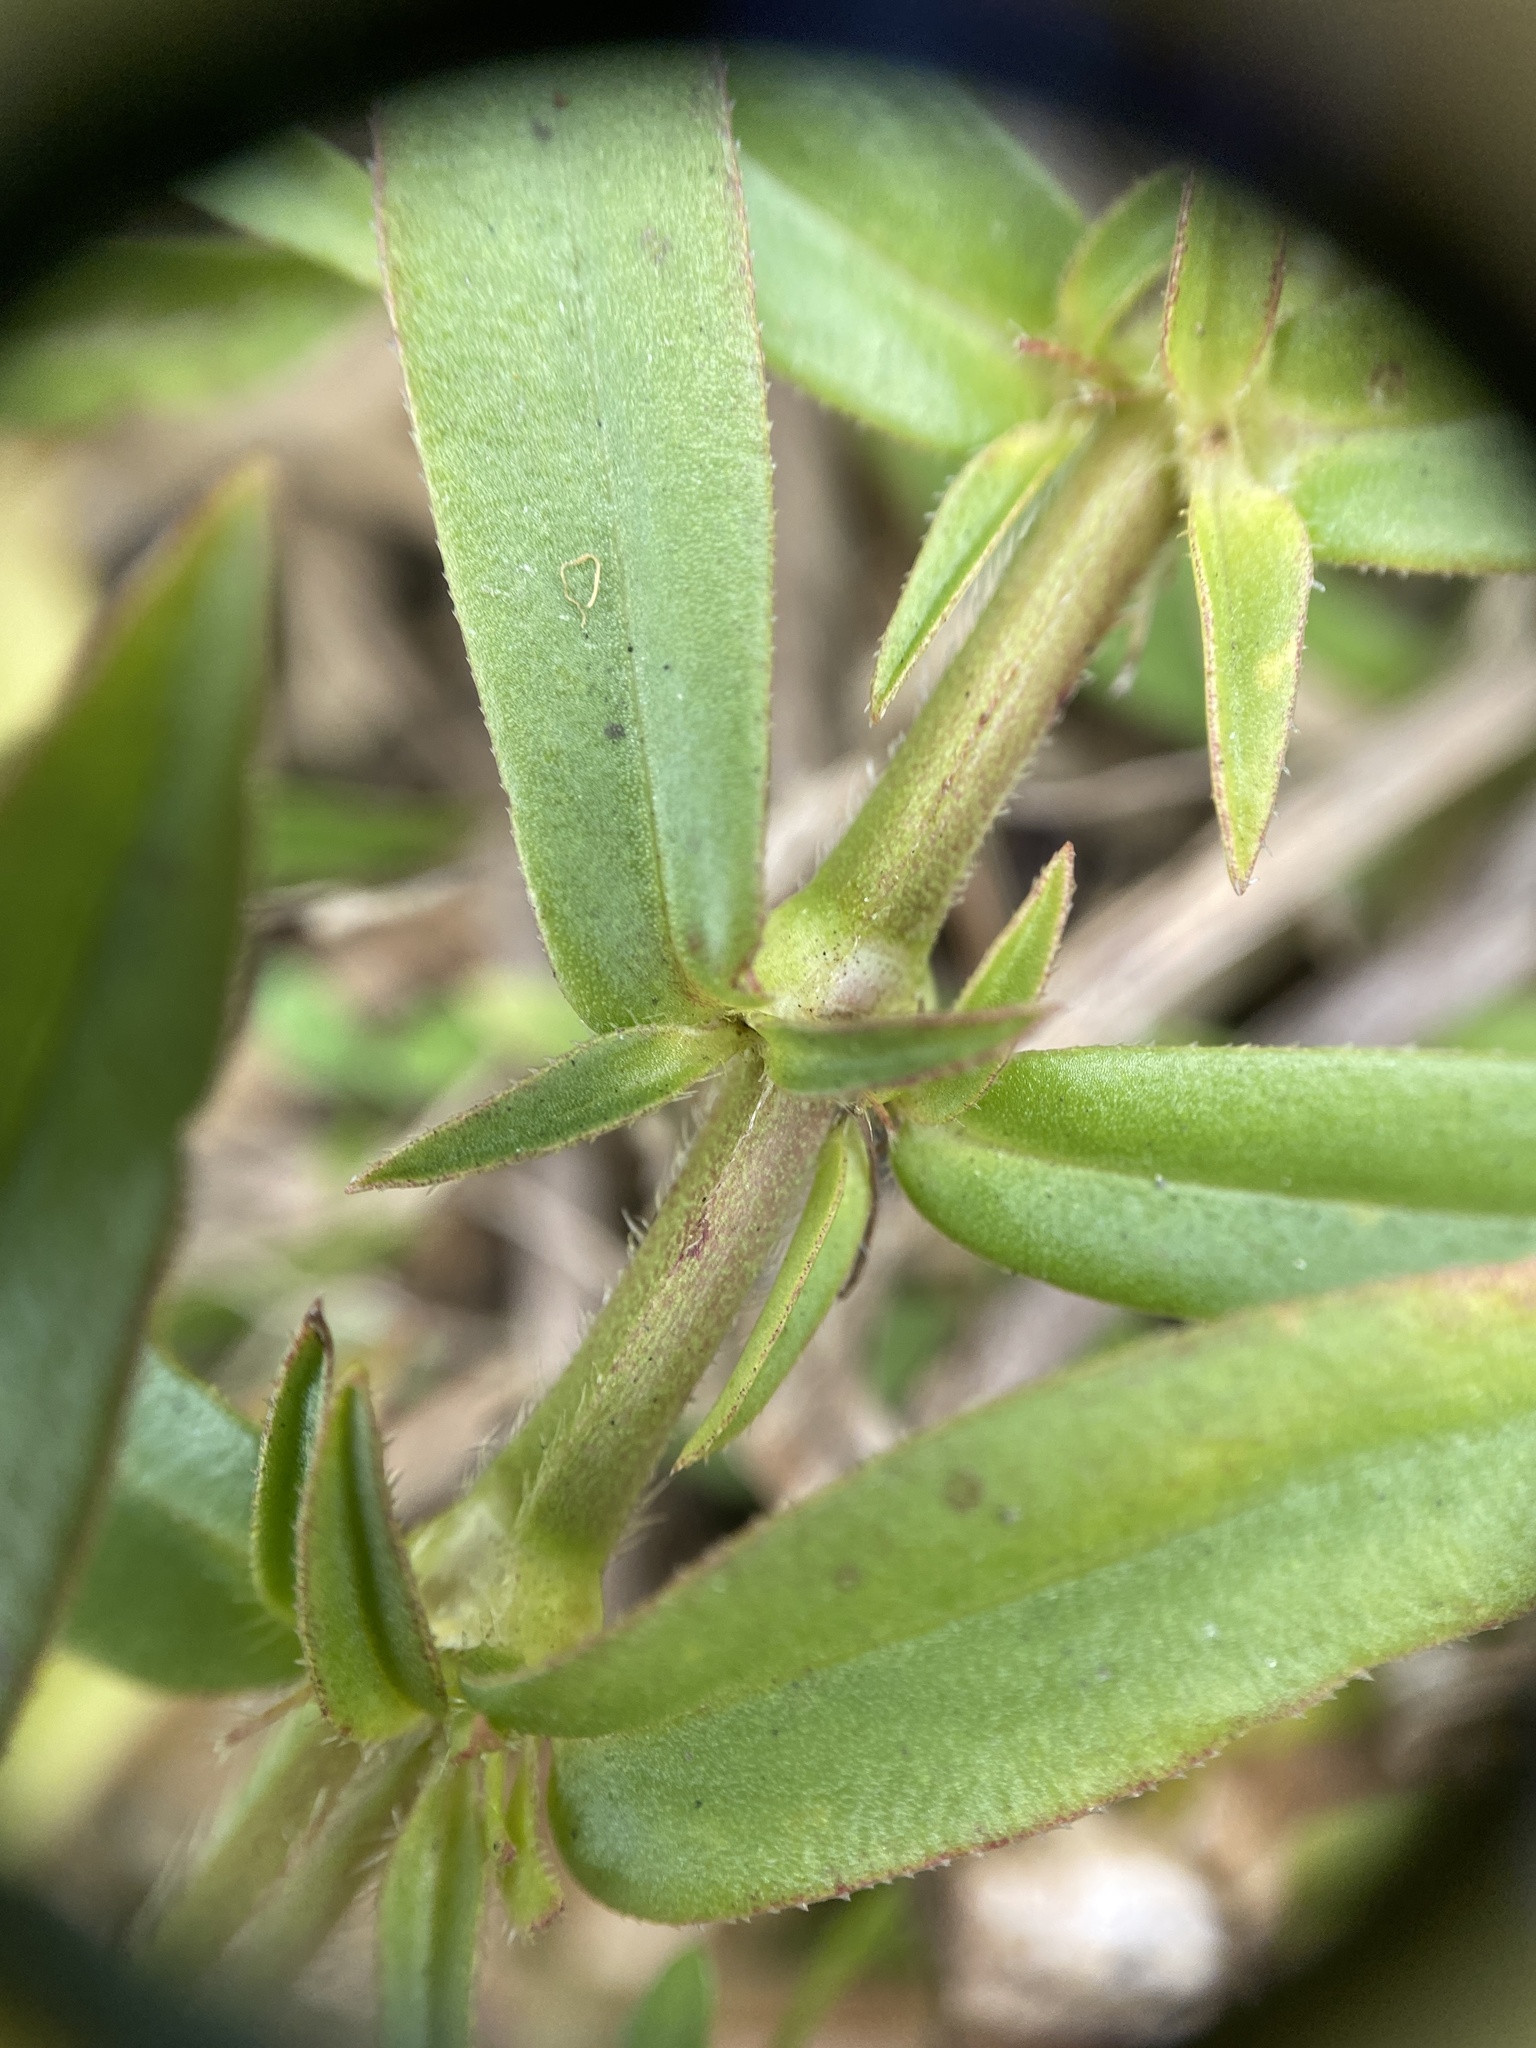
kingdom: Plantae
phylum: Tracheophyta
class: Magnoliopsida
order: Gentianales
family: Rubiaceae
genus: Diodia
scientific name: Diodia virginiana
